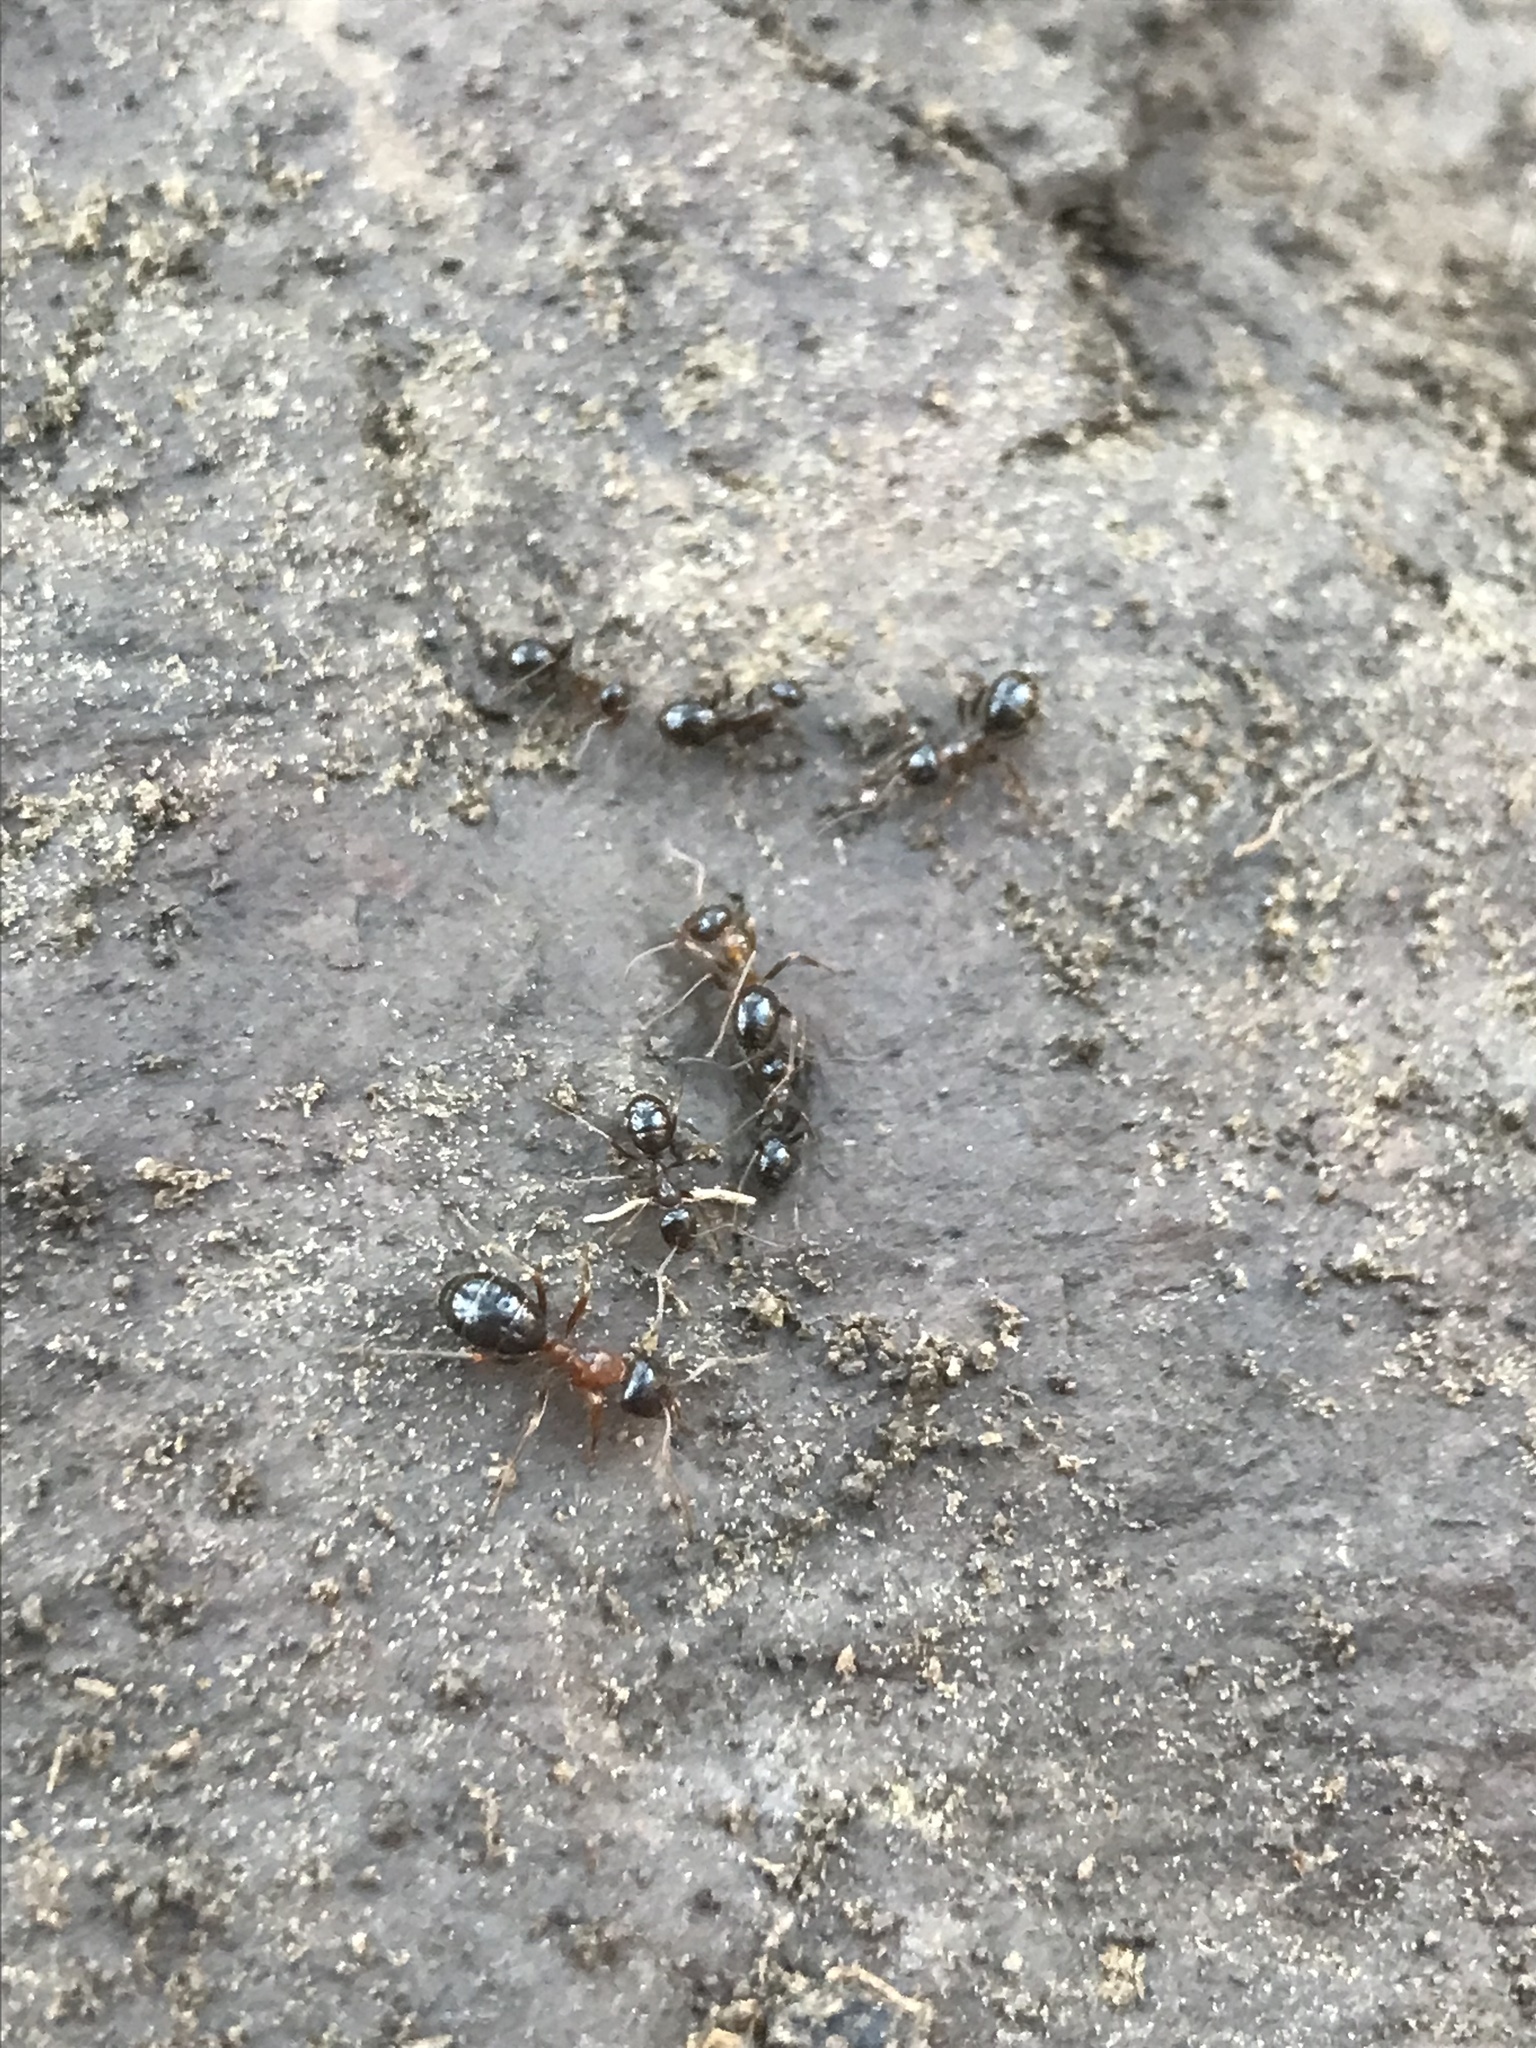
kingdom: Animalia
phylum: Arthropoda
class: Insecta
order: Hymenoptera
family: Formicidae
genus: Formica
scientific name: Formica subpolita
